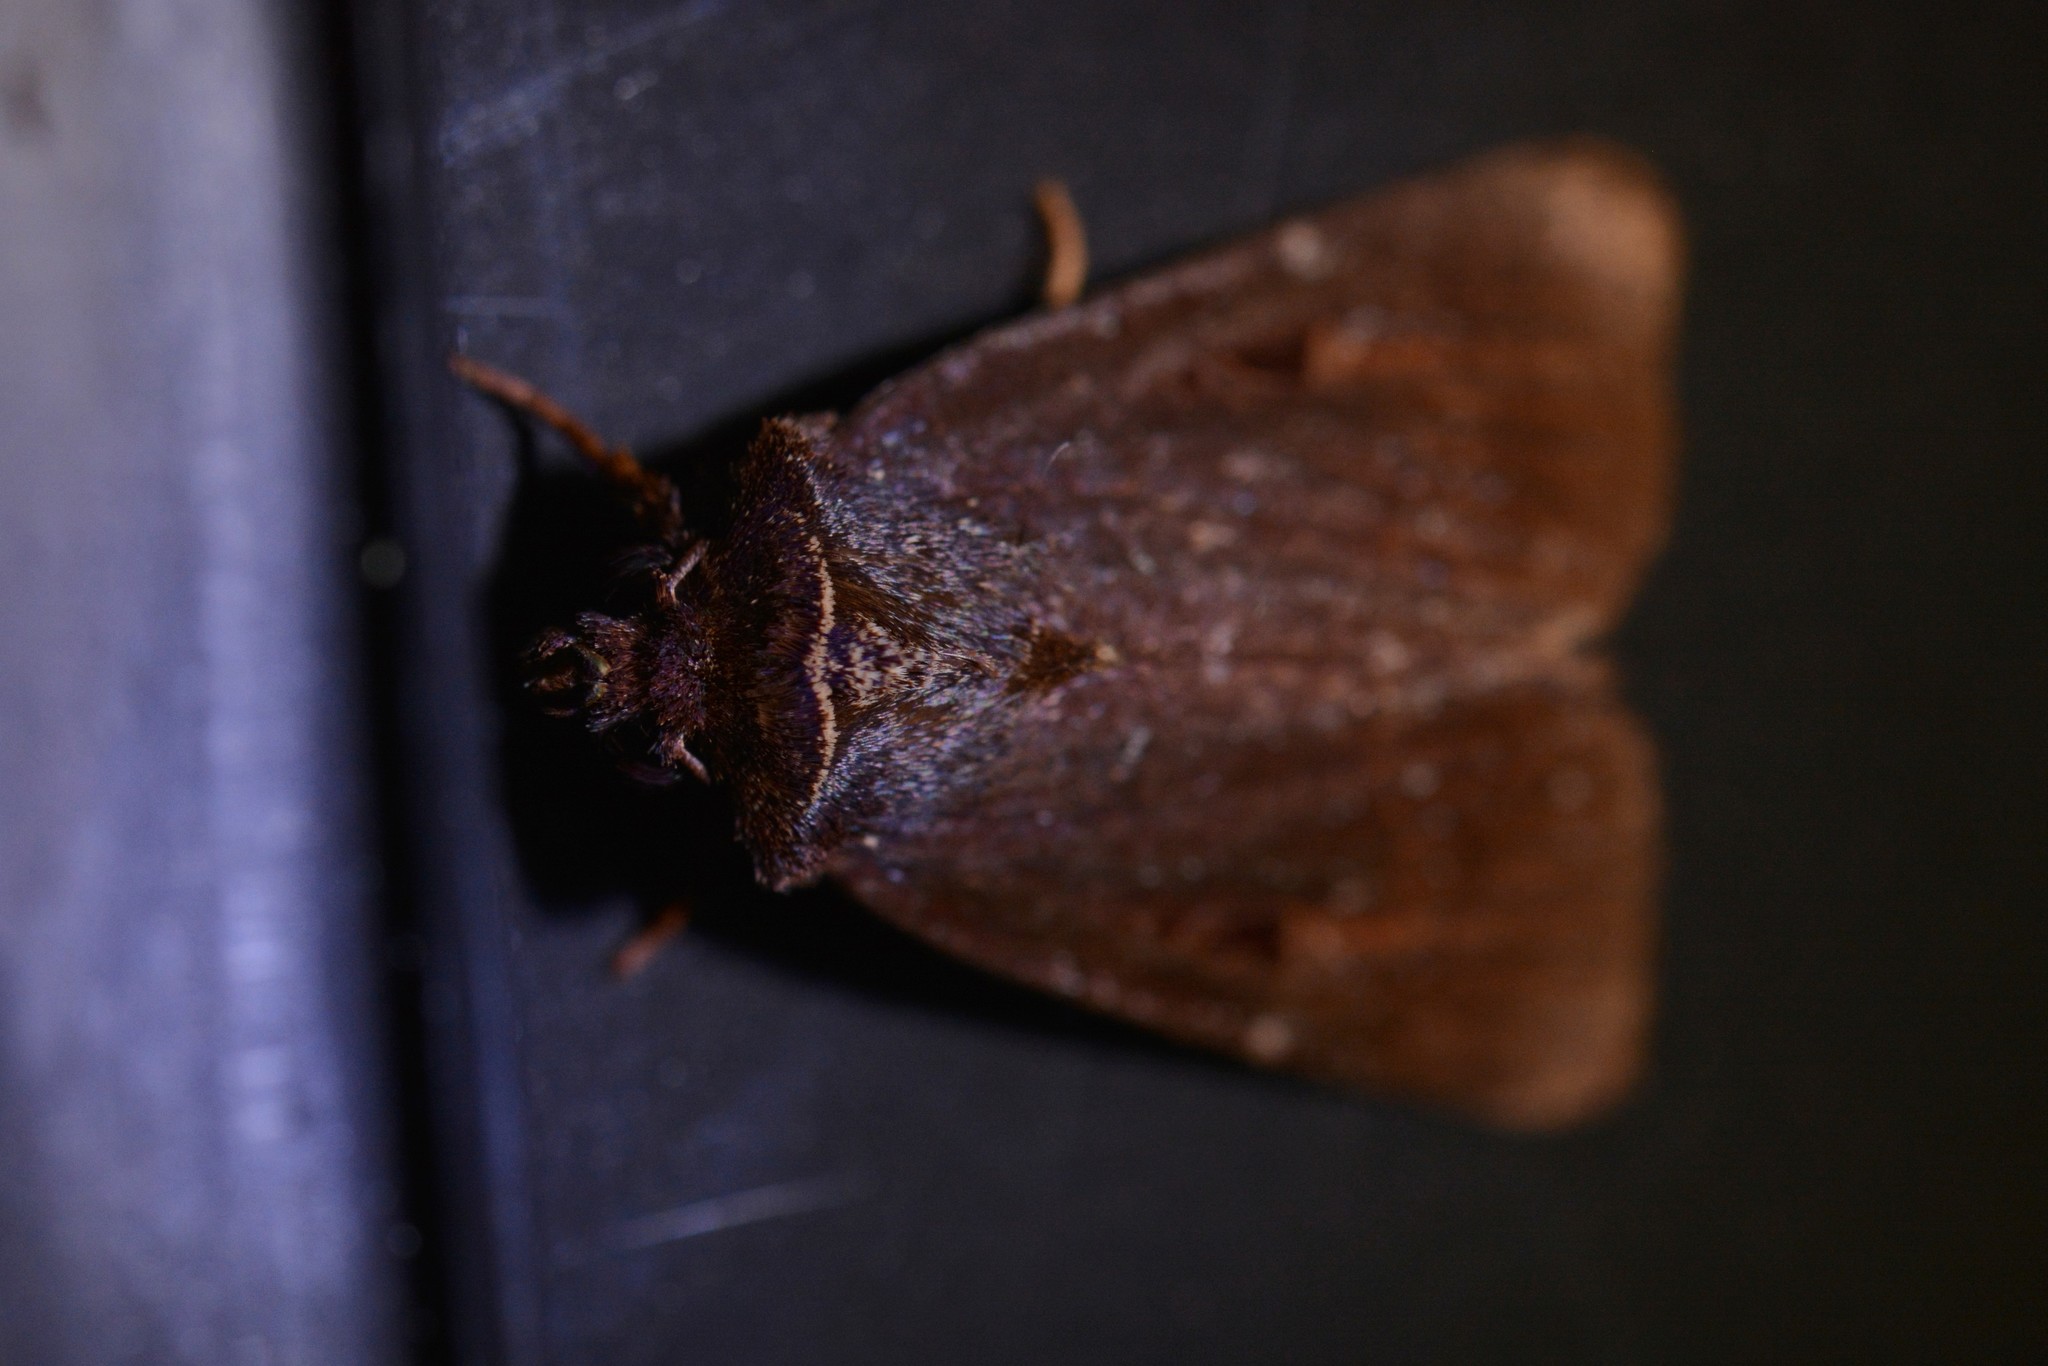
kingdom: Animalia
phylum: Arthropoda
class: Insecta
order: Lepidoptera
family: Noctuidae
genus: Austramathes
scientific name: Austramathes purpurea
